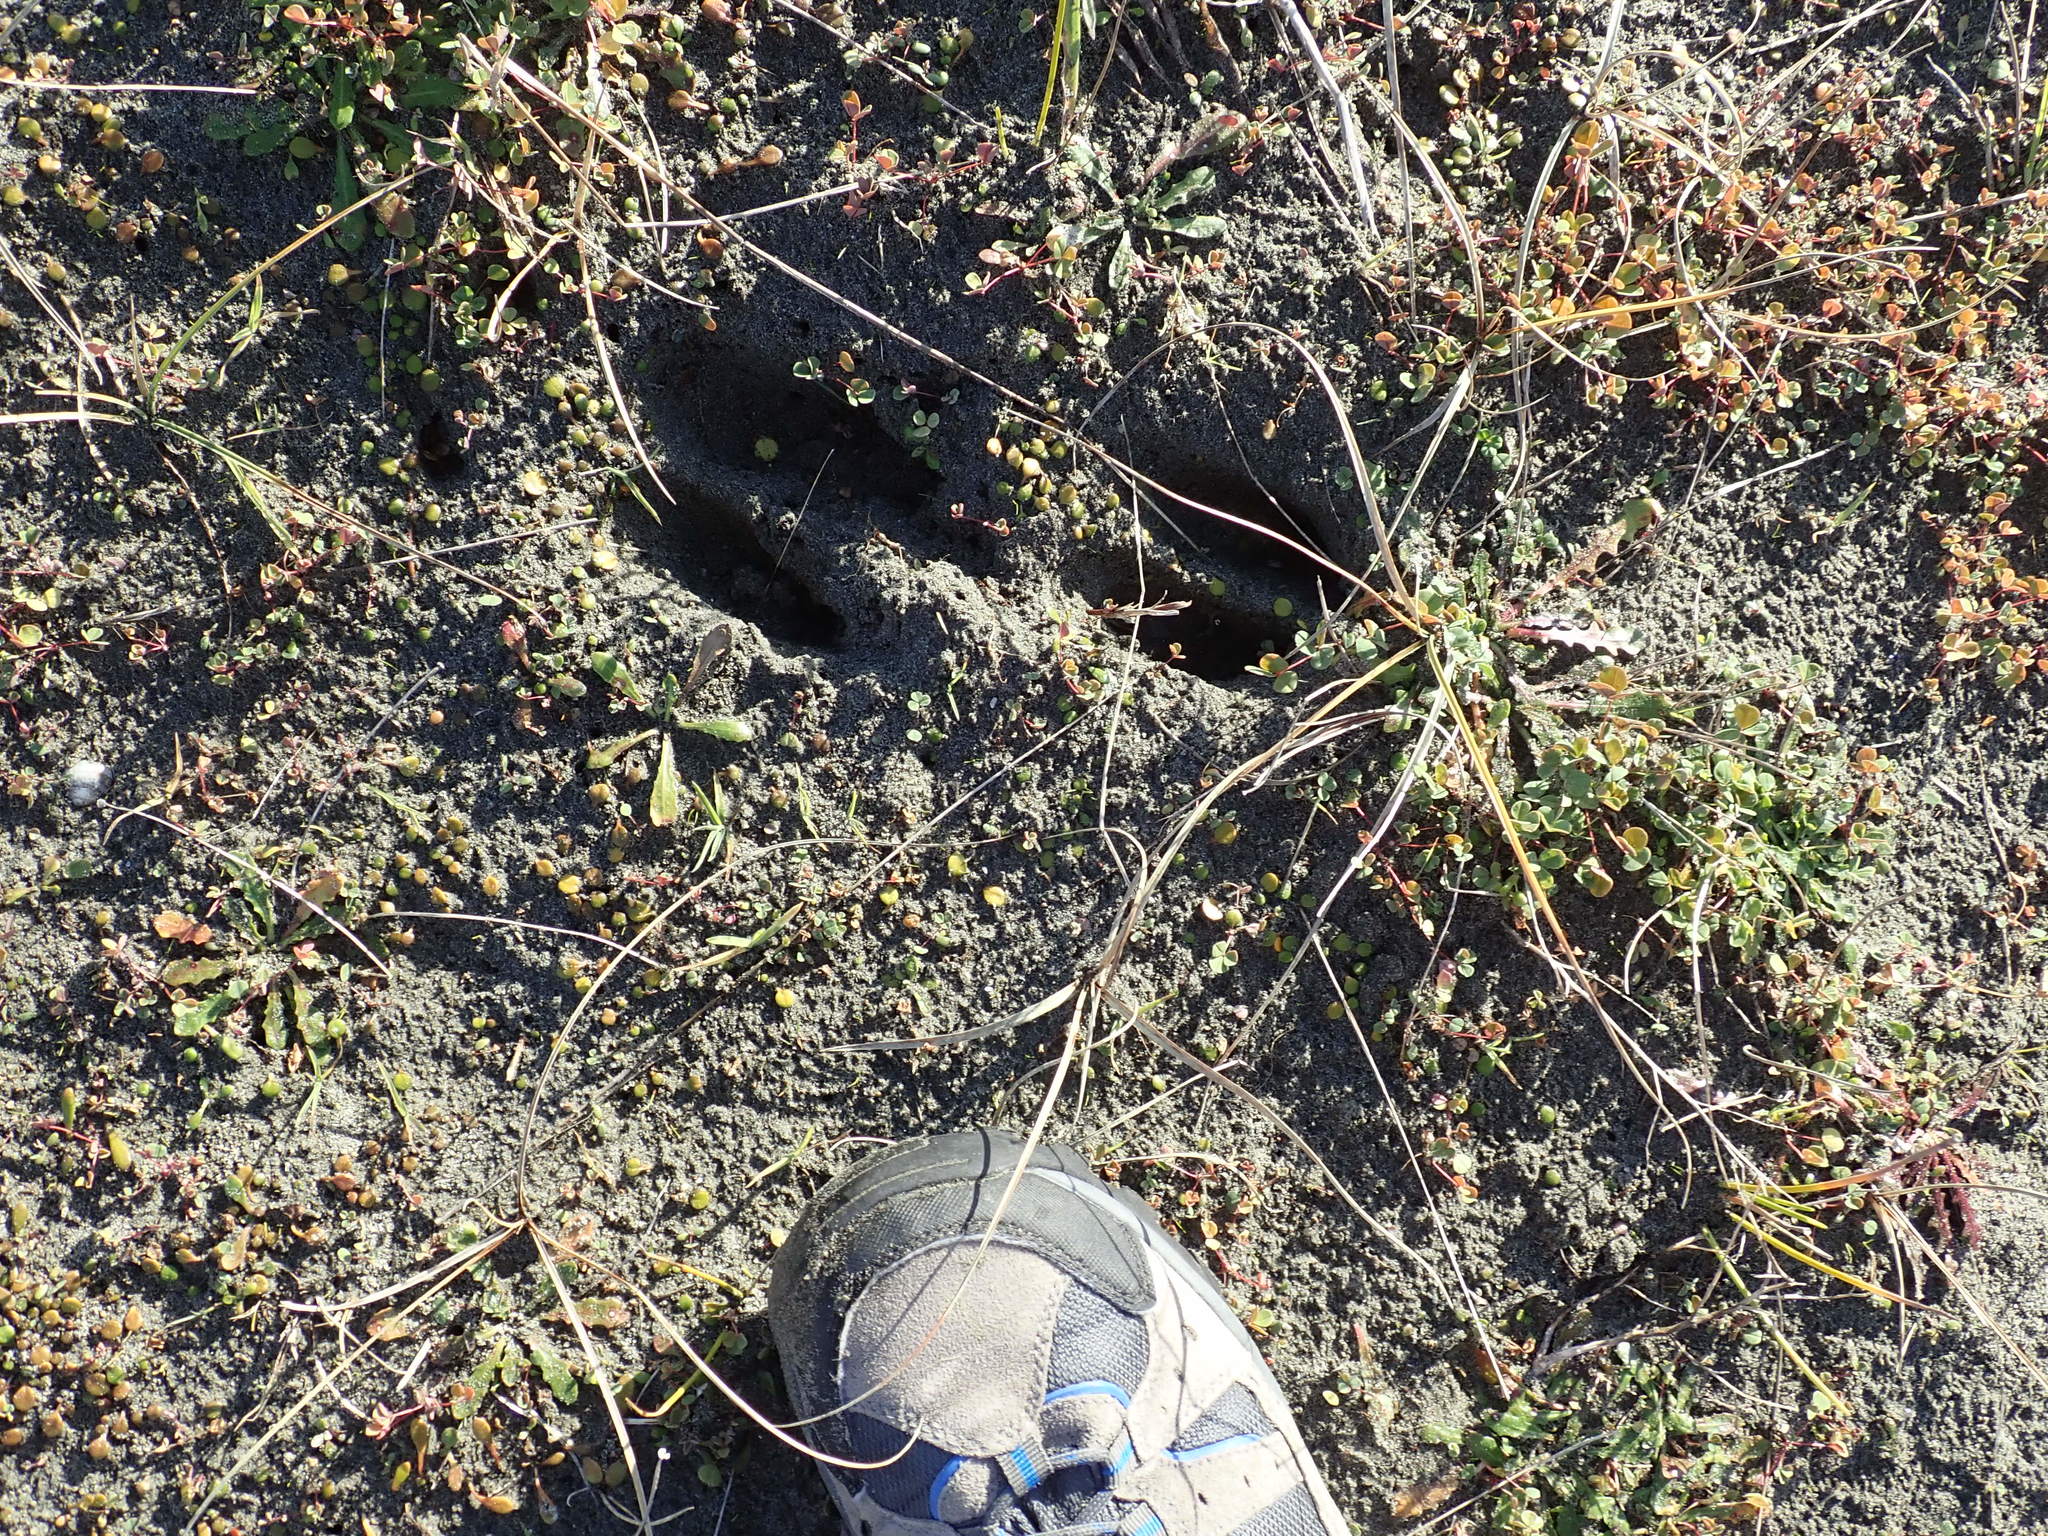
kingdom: Animalia
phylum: Chordata
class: Mammalia
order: Artiodactyla
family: Cervidae
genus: Rusa
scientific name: Rusa unicolor
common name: Sambar
